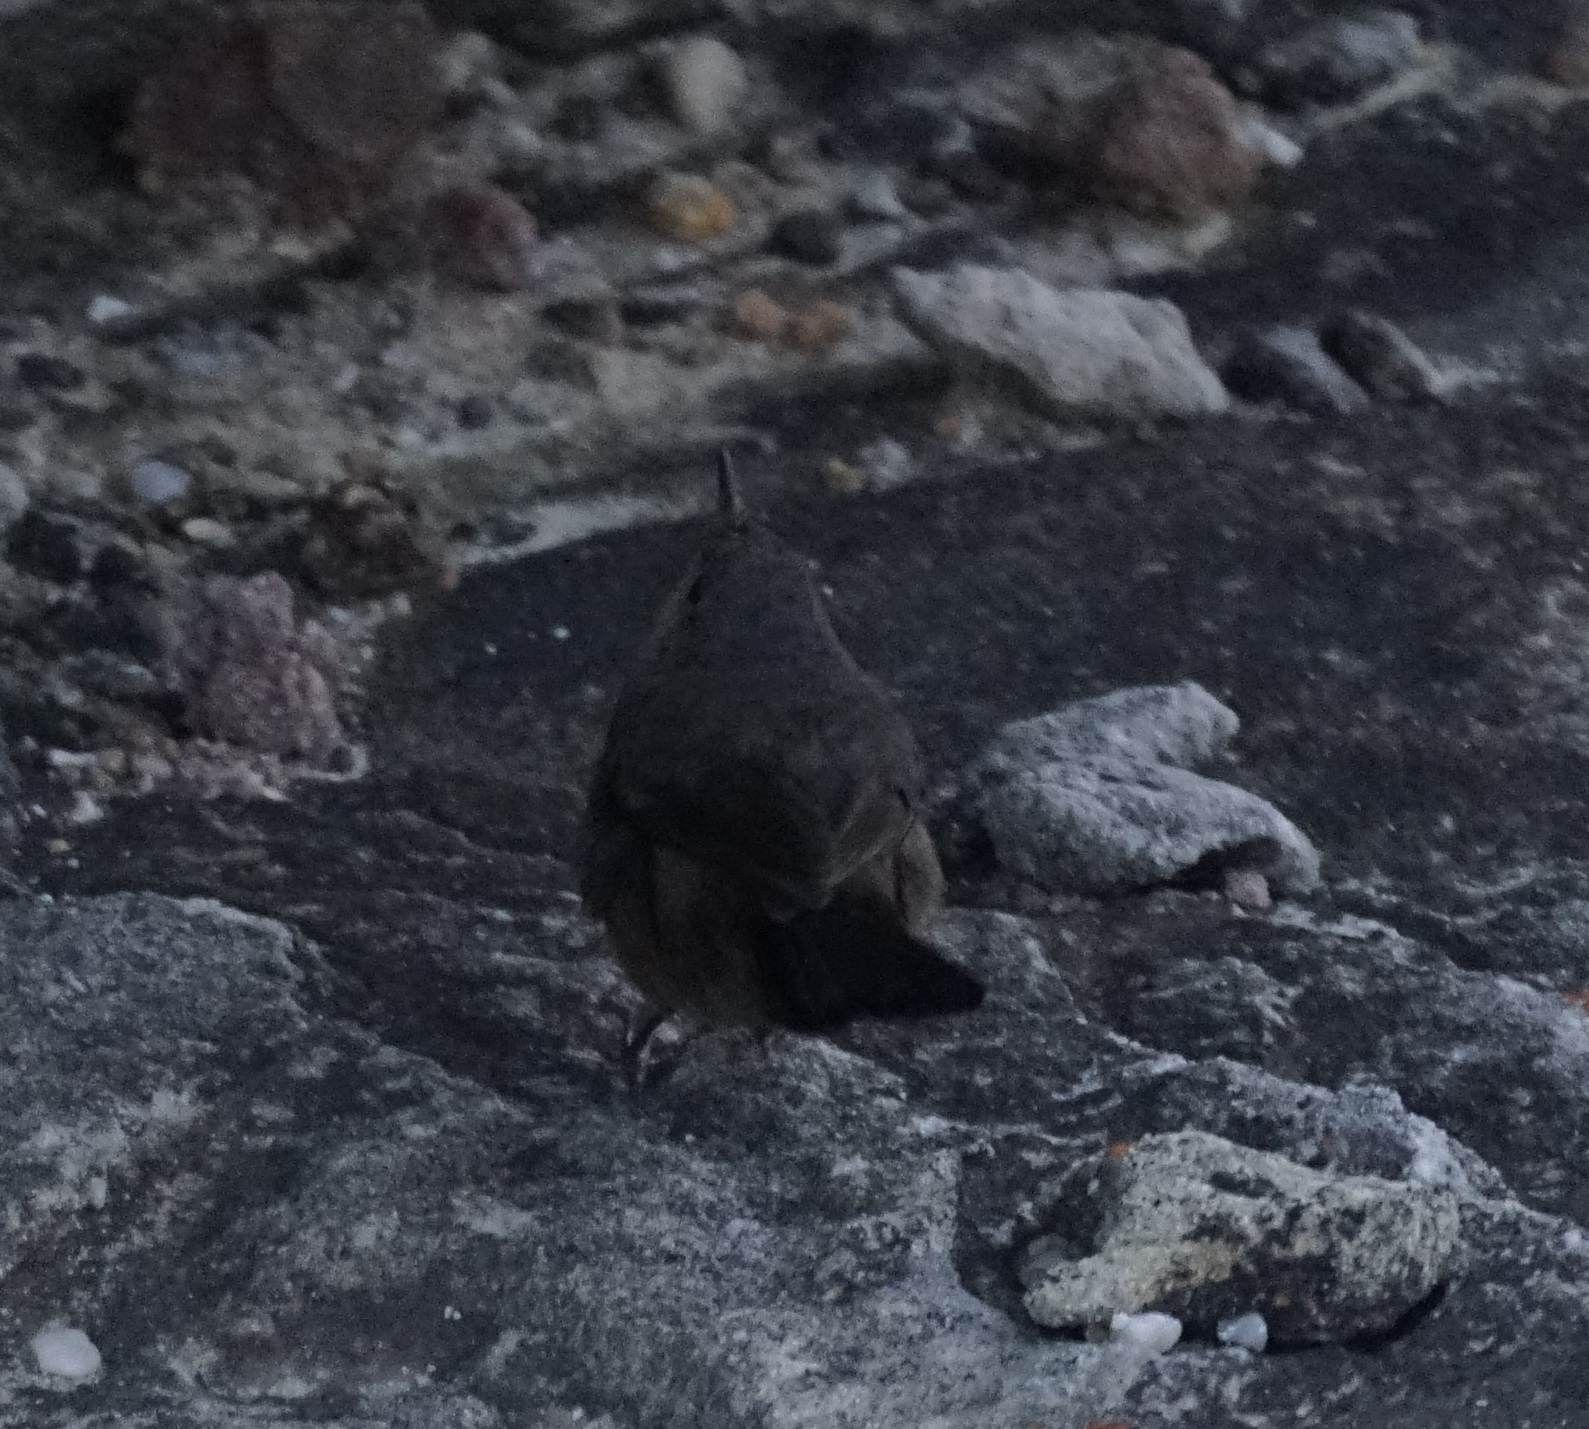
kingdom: Animalia
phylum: Chordata
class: Aves
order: Passeriformes
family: Acanthizidae
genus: Origma
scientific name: Origma solitaria
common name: Rockwarbler
